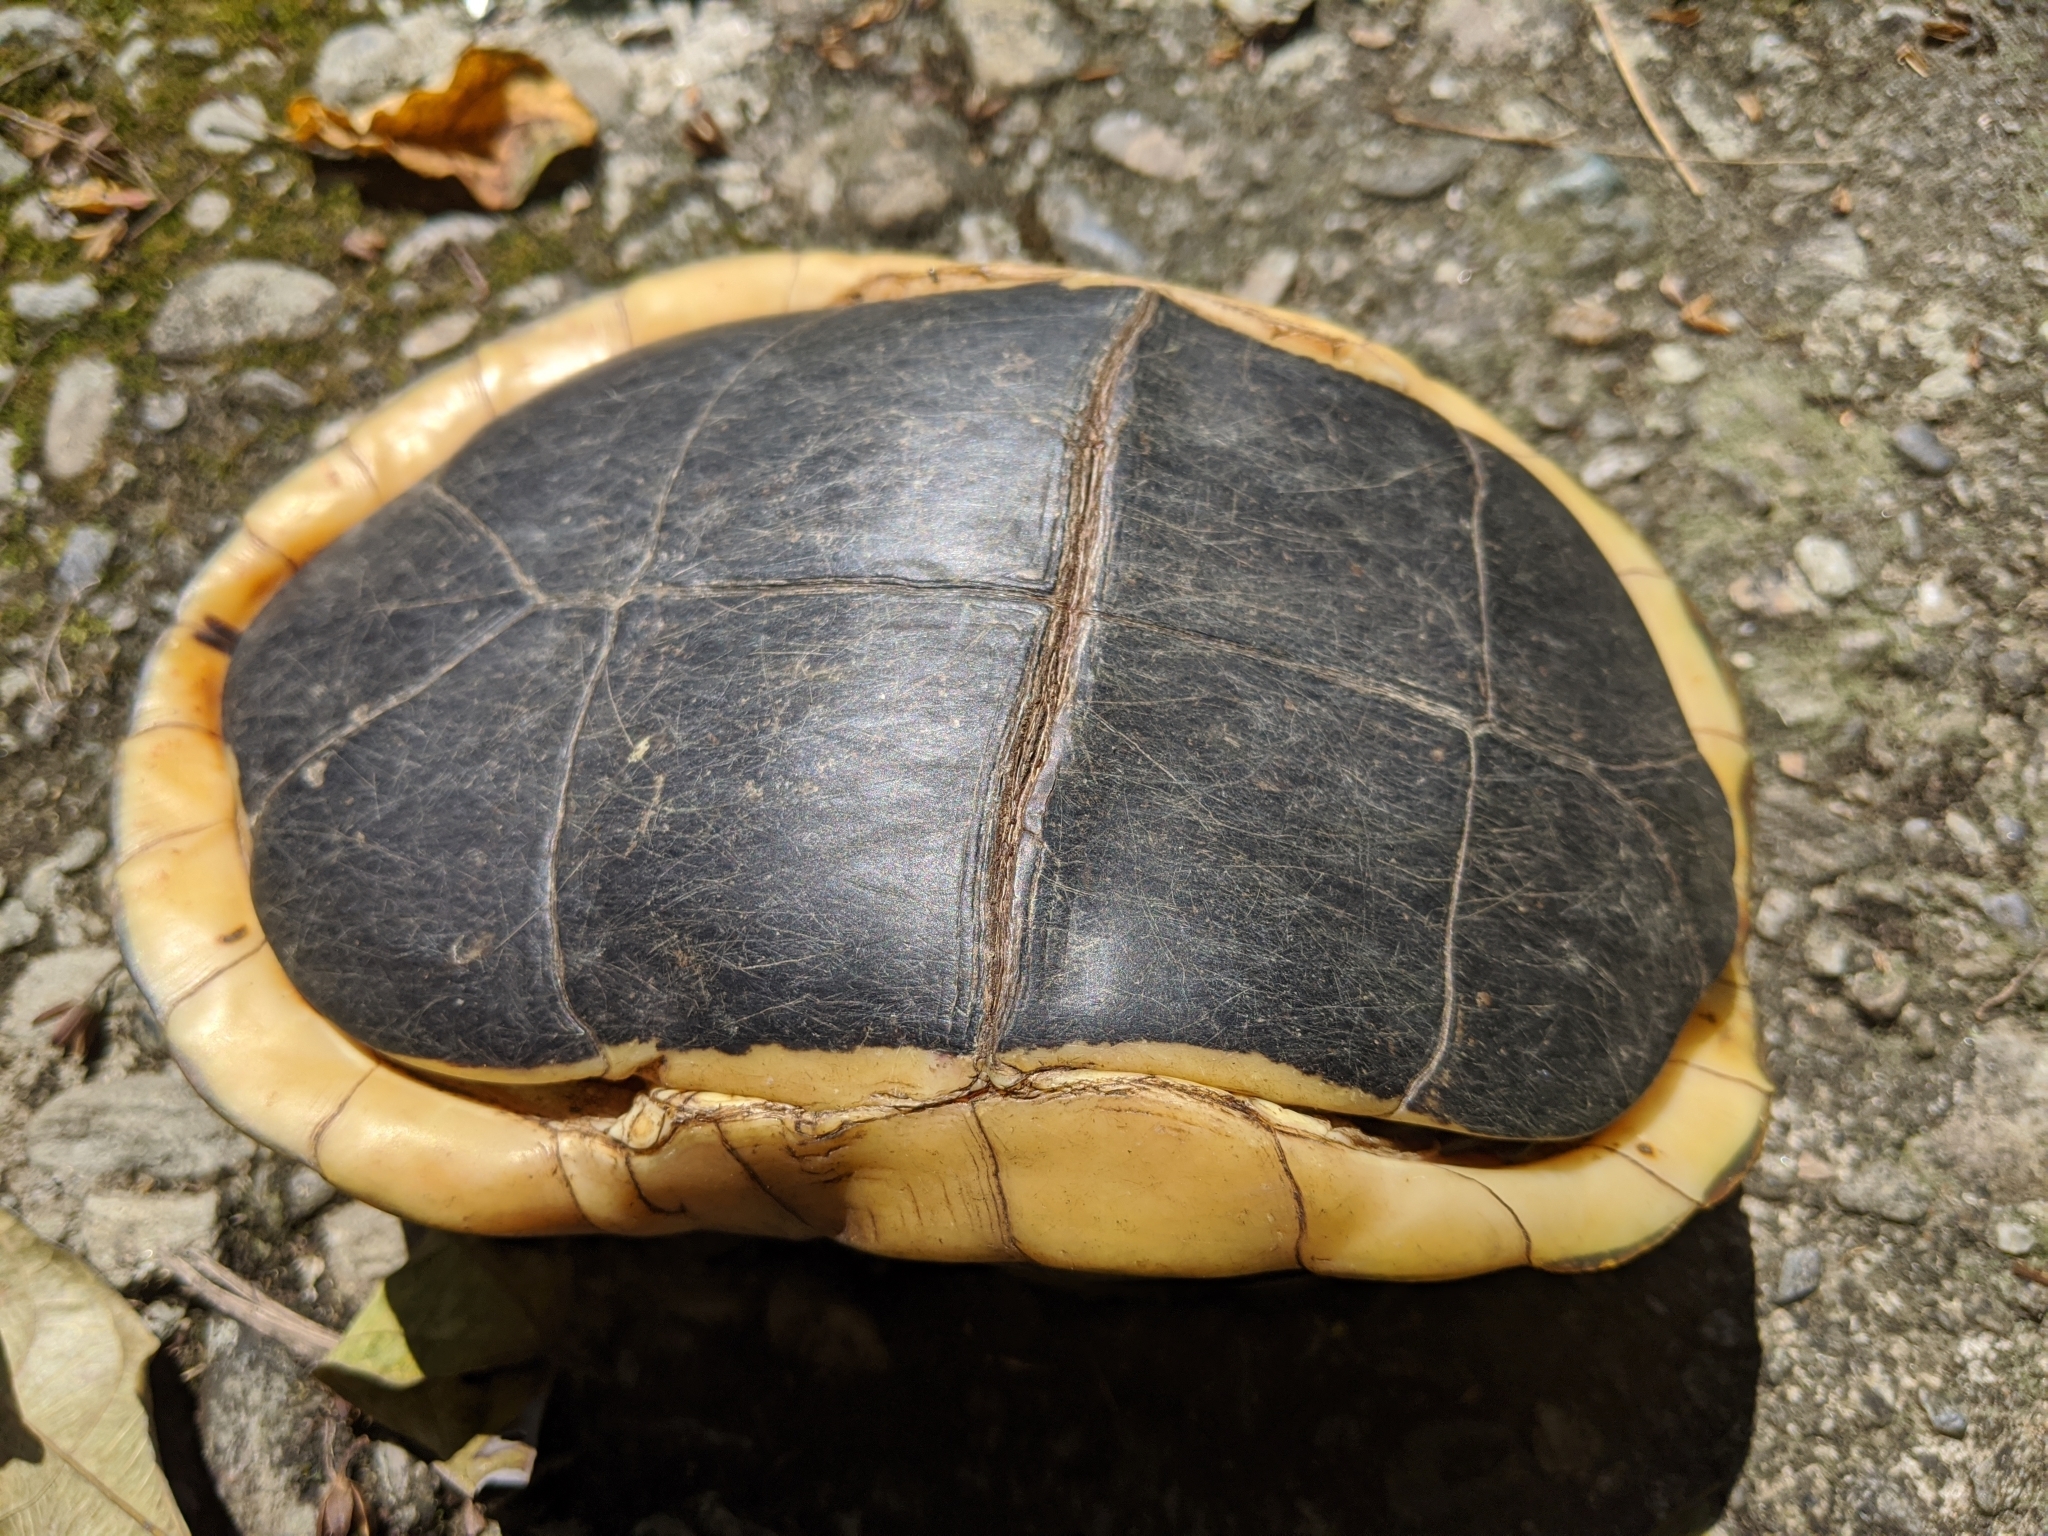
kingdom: Animalia
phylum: Chordata
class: Testudines
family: Geoemydidae
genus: Cuora
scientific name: Cuora flavomarginata
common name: Yellow-margined box turtle
